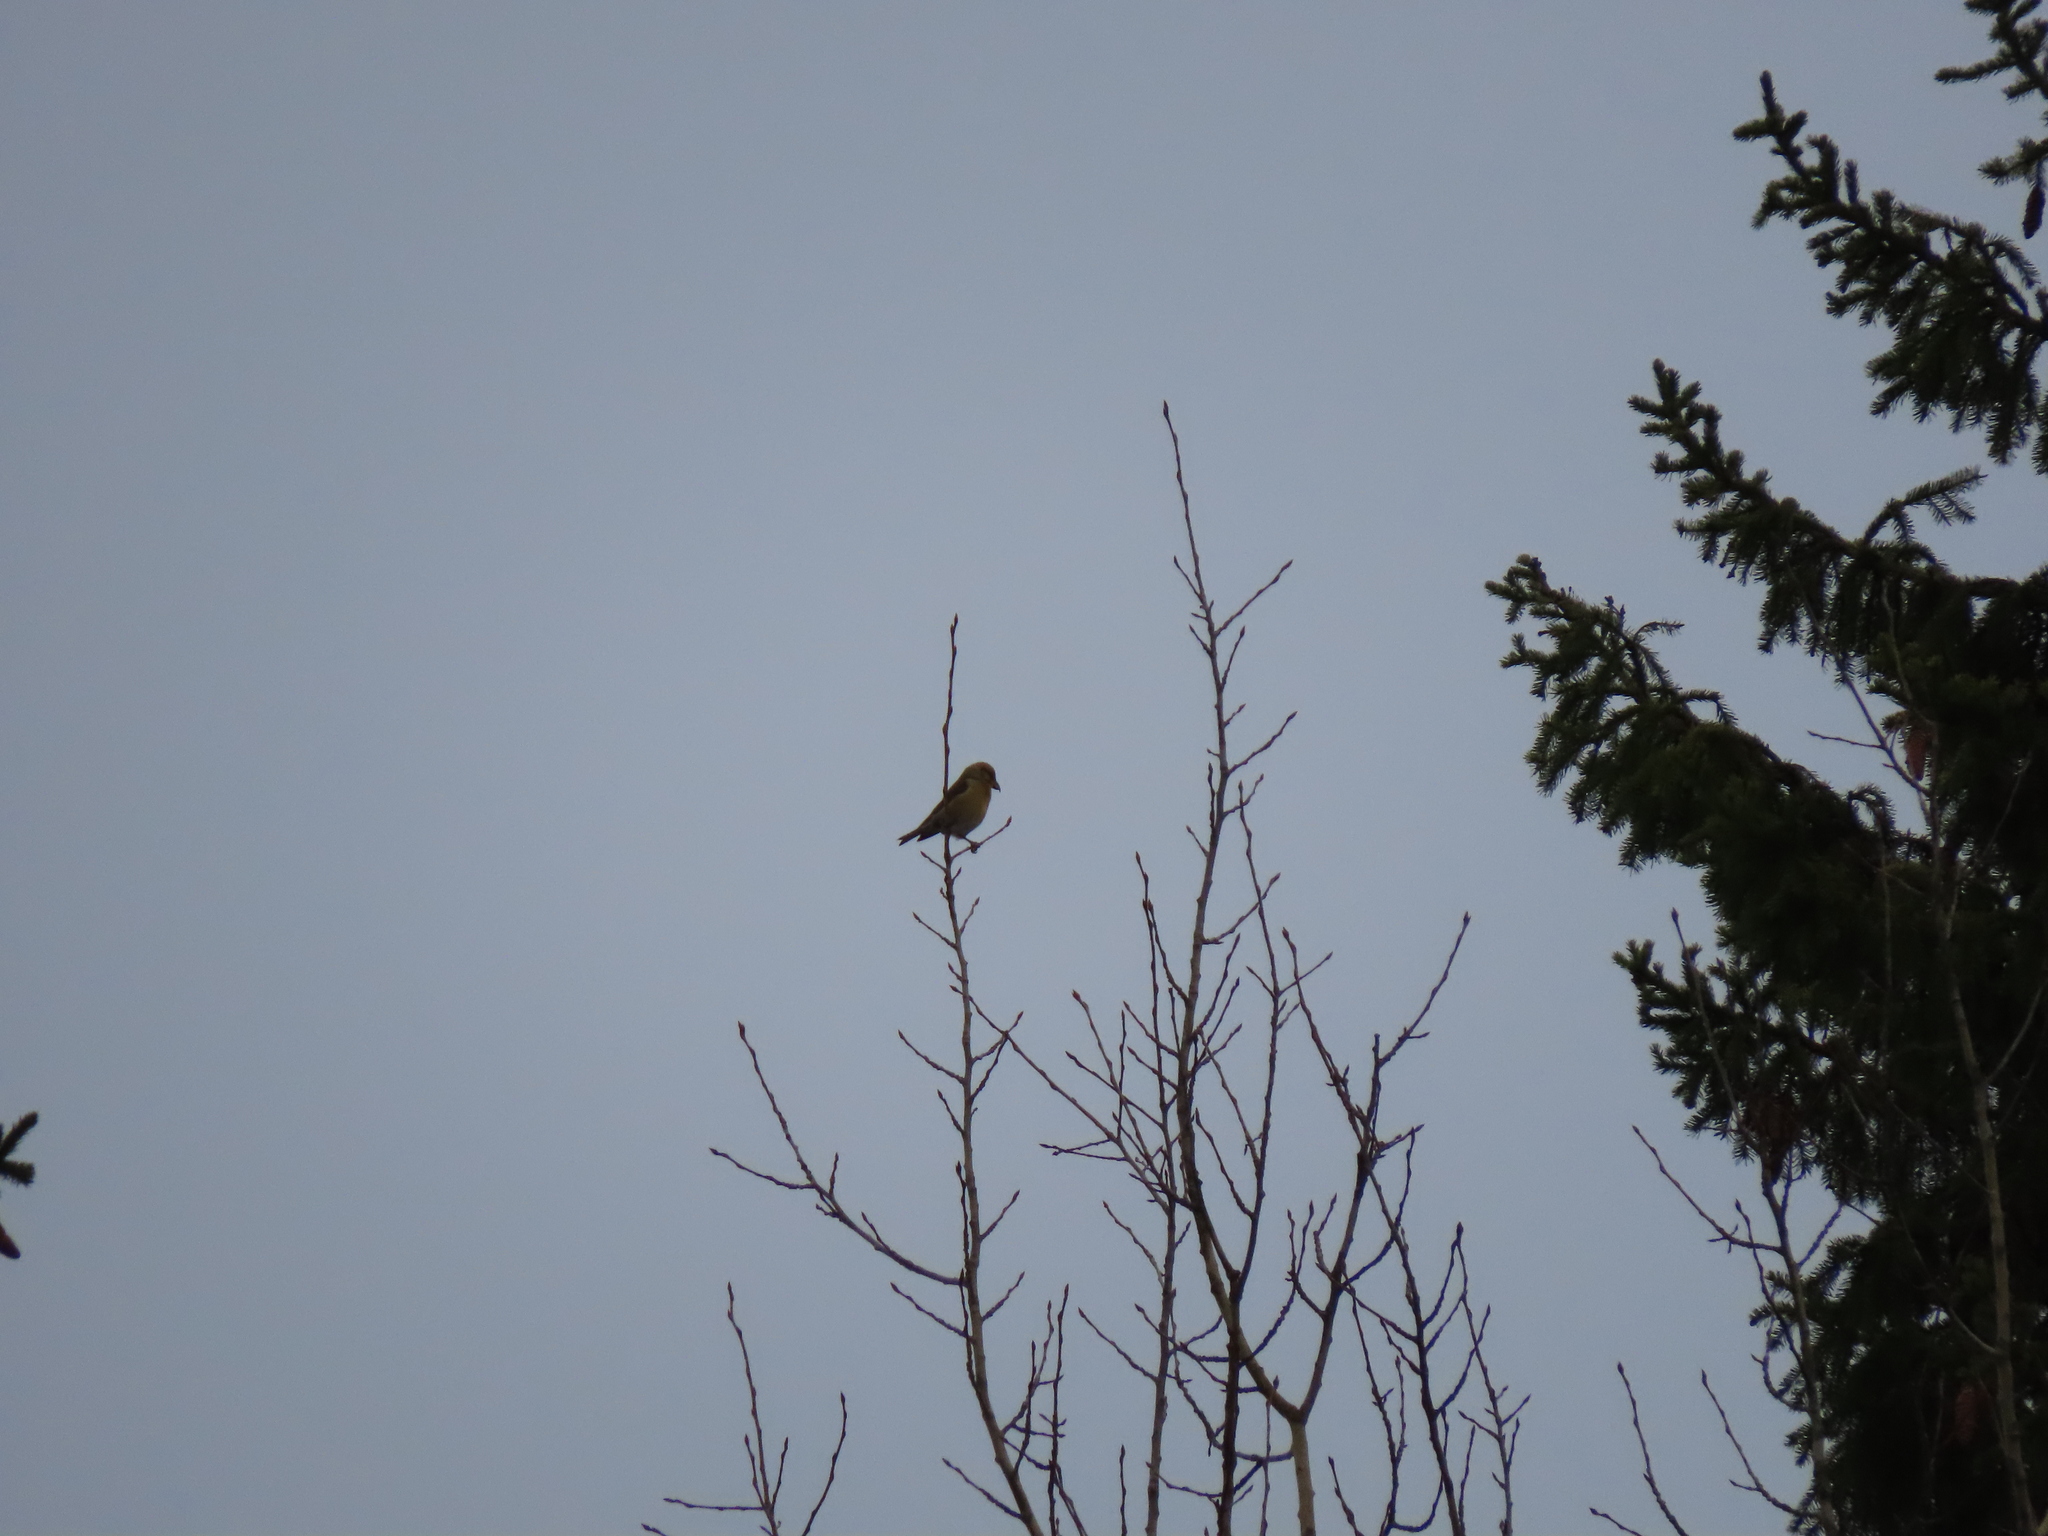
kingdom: Animalia
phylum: Chordata
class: Aves
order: Passeriformes
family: Fringillidae
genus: Loxia
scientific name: Loxia curvirostra
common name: Red crossbill
